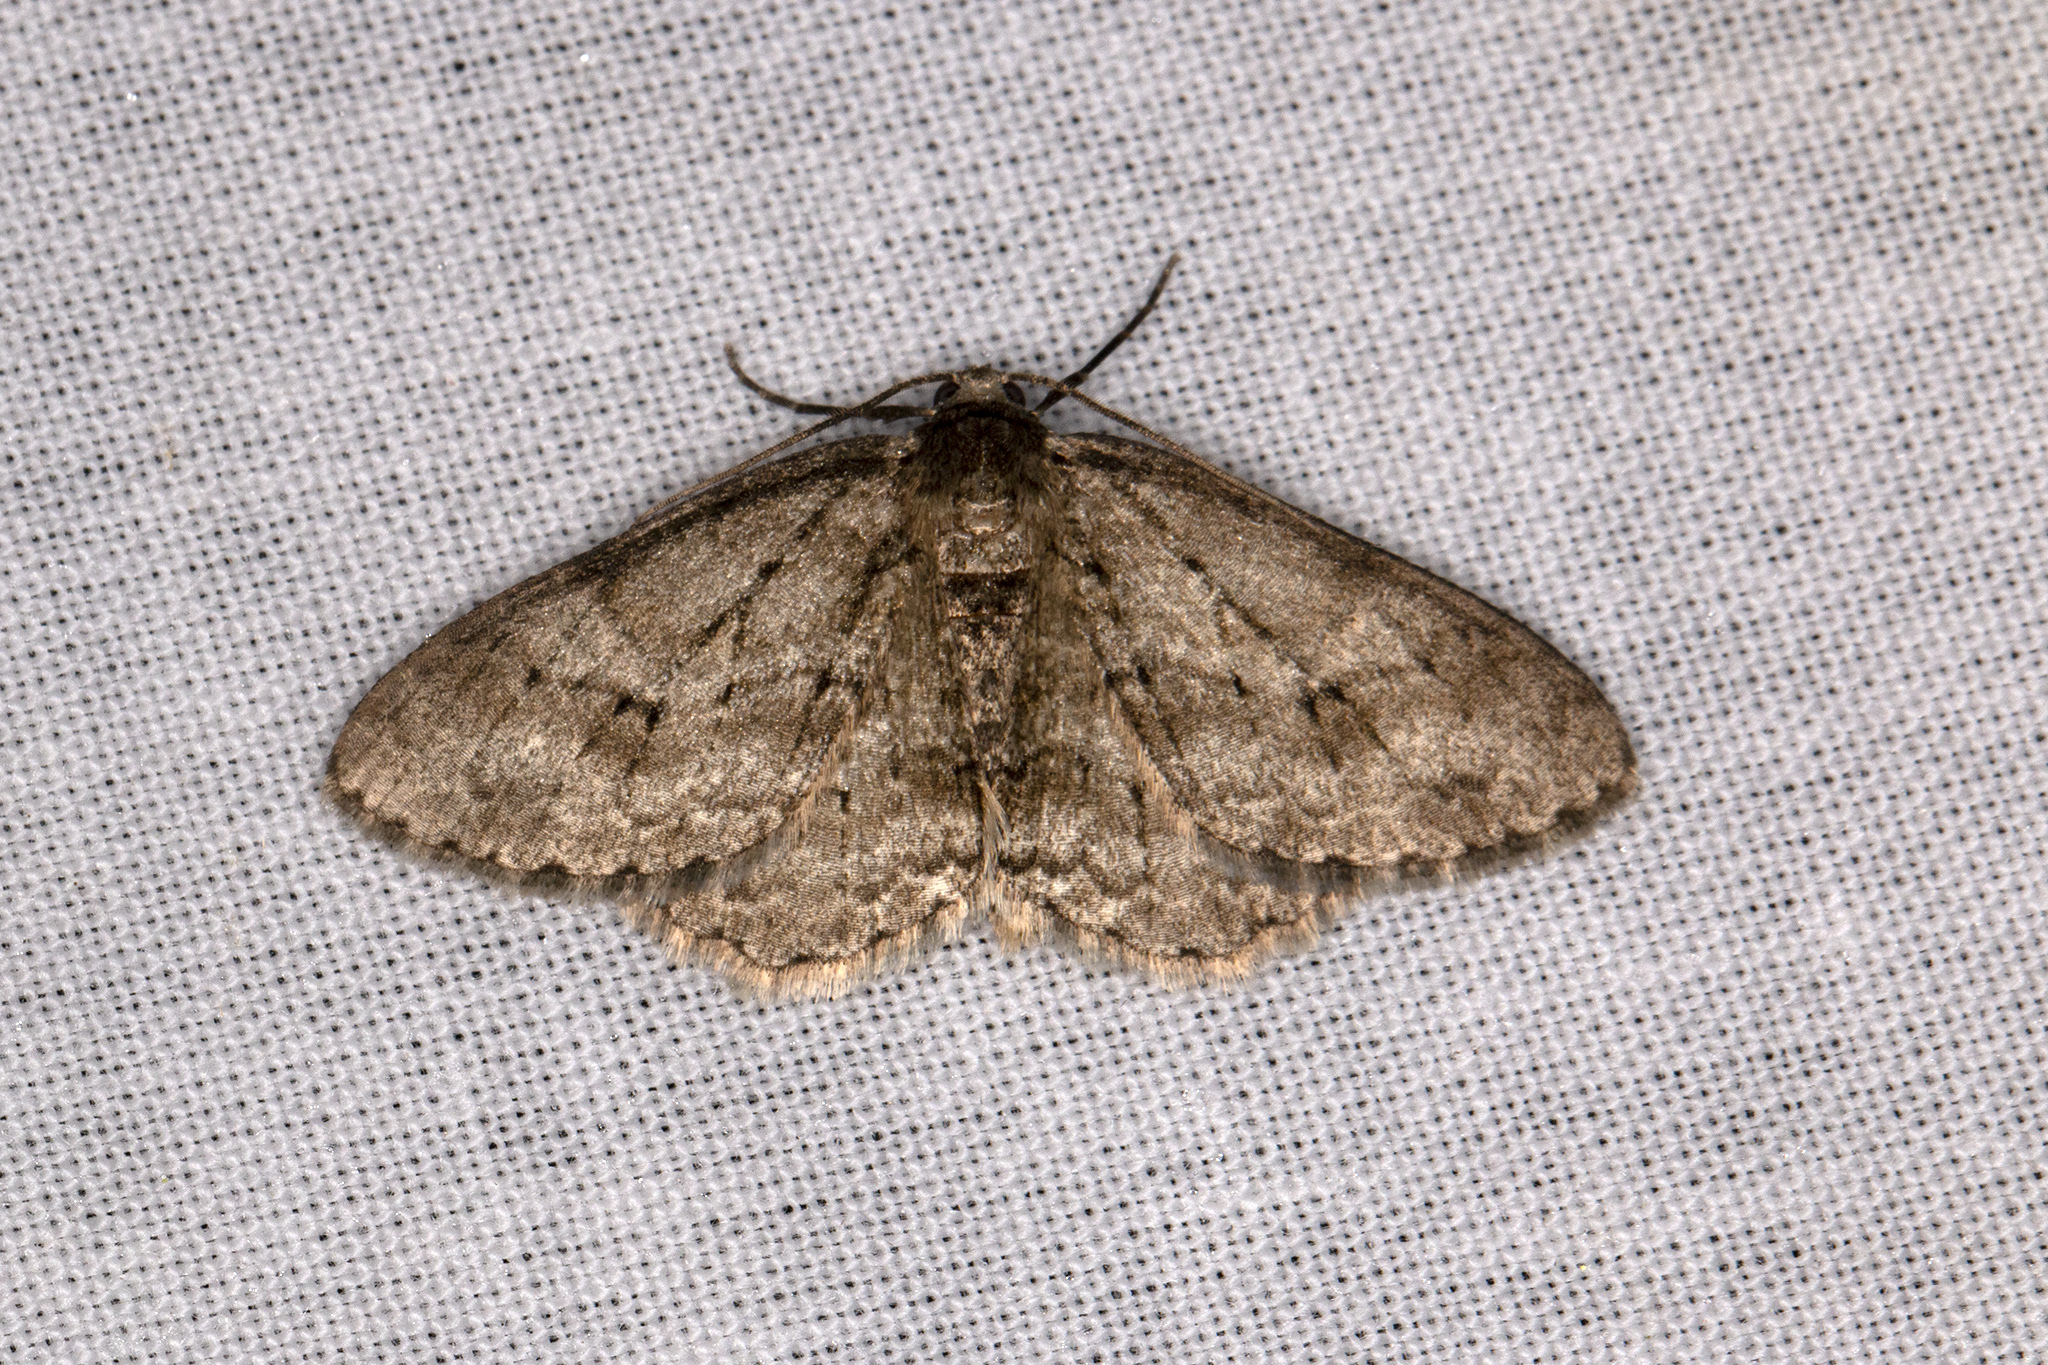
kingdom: Animalia
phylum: Arthropoda
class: Insecta
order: Lepidoptera
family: Geometridae
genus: Ectropis
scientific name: Ectropis crepuscularia
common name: Engrailed
